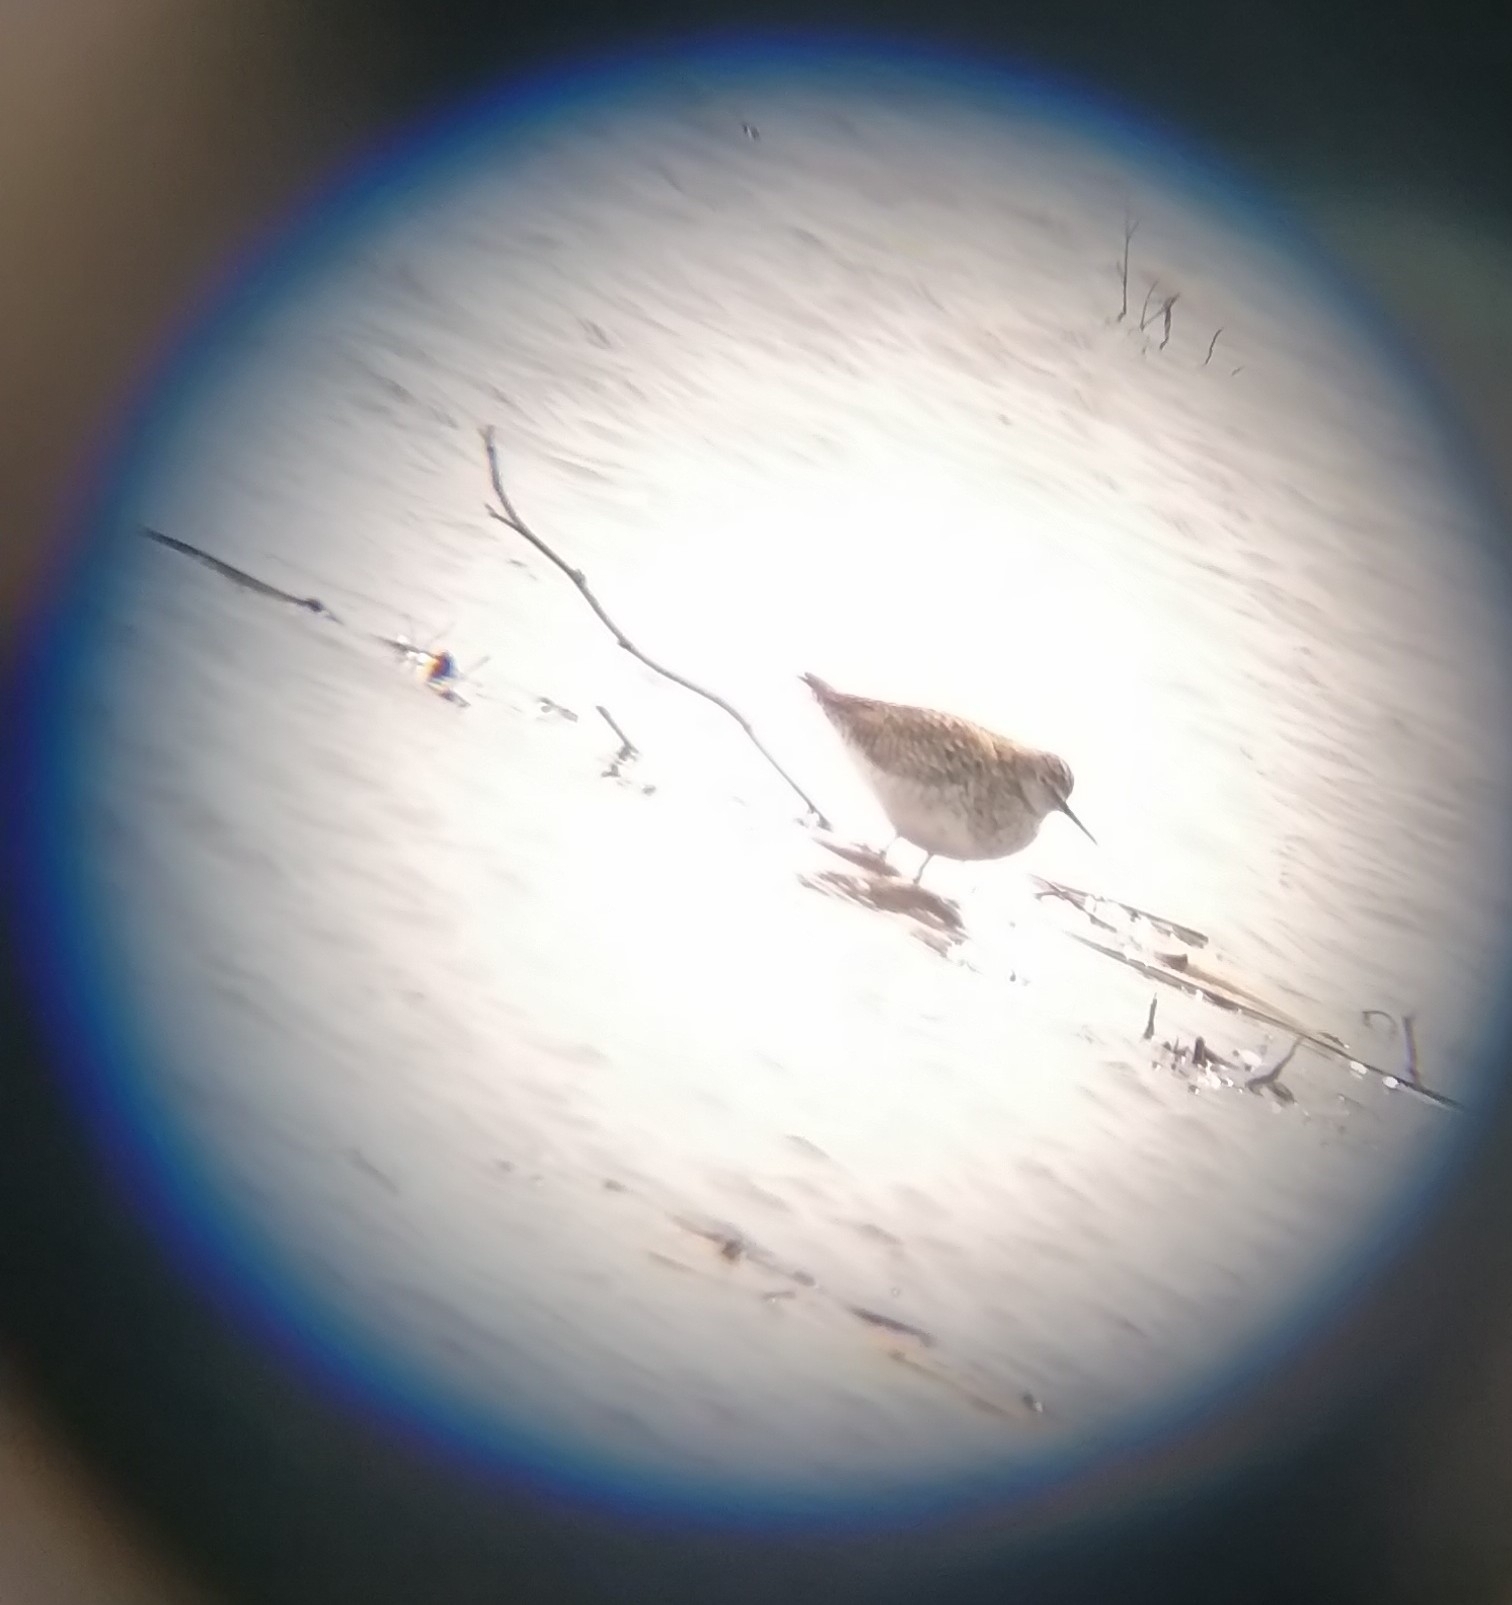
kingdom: Animalia
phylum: Chordata
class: Aves
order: Charadriiformes
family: Scolopacidae
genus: Tringa
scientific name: Tringa flavipes
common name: Lesser yellowlegs
